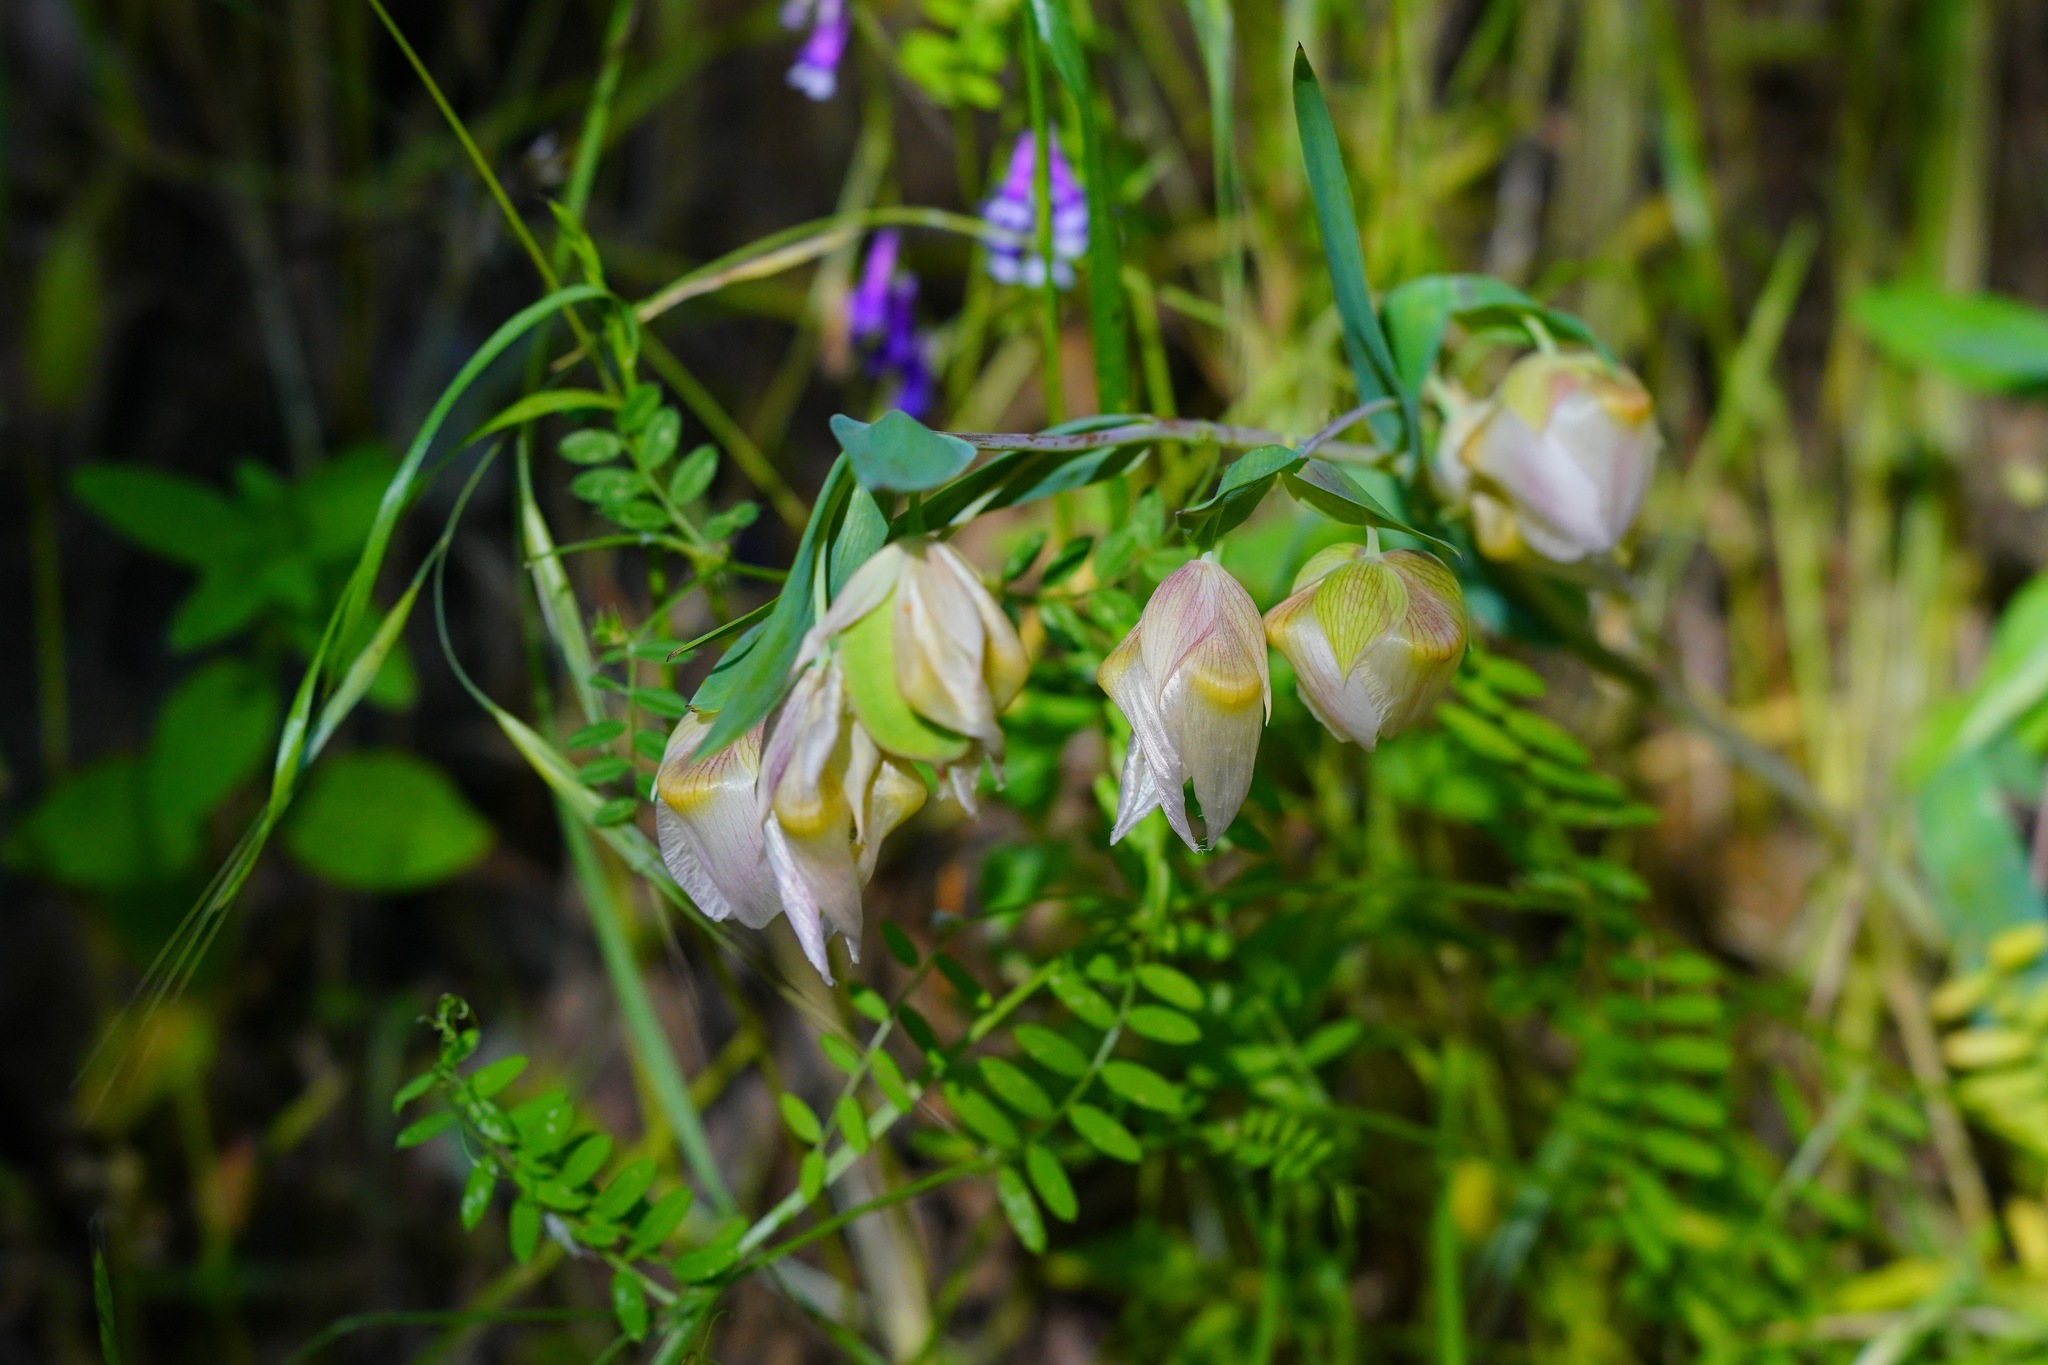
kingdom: Plantae
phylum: Tracheophyta
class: Liliopsida
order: Liliales
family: Liliaceae
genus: Calochortus
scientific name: Calochortus albus
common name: Fairy-lantern
